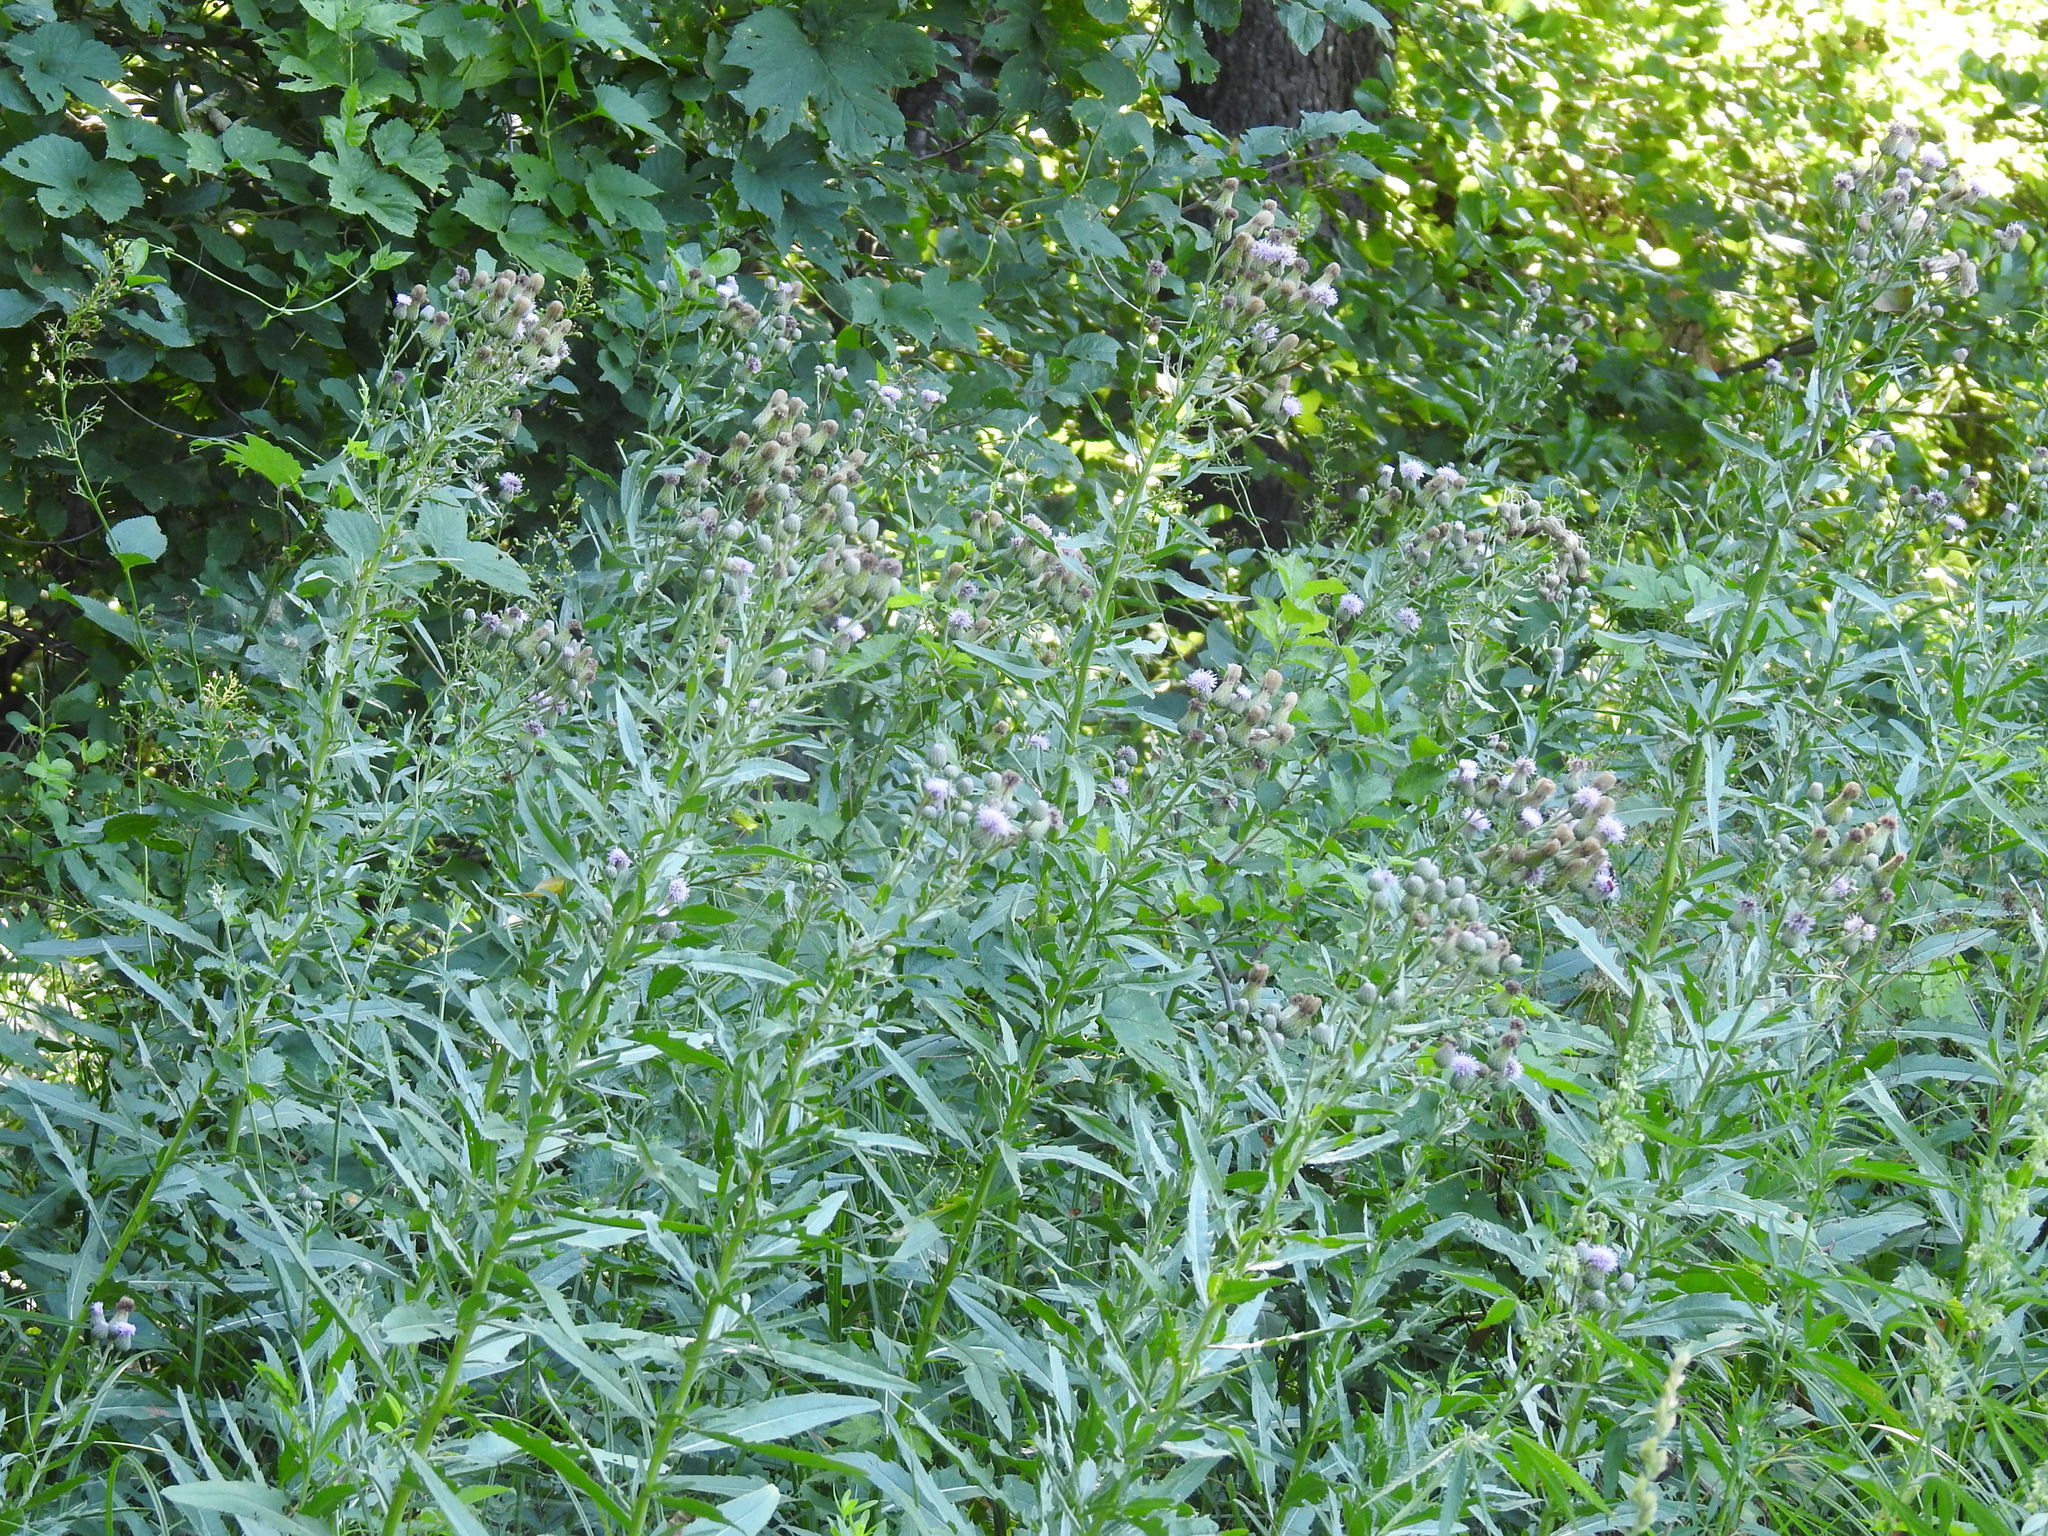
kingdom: Plantae
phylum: Tracheophyta
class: Magnoliopsida
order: Asterales
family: Asteraceae
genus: Cirsium
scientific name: Cirsium arvense
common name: Creeping thistle
